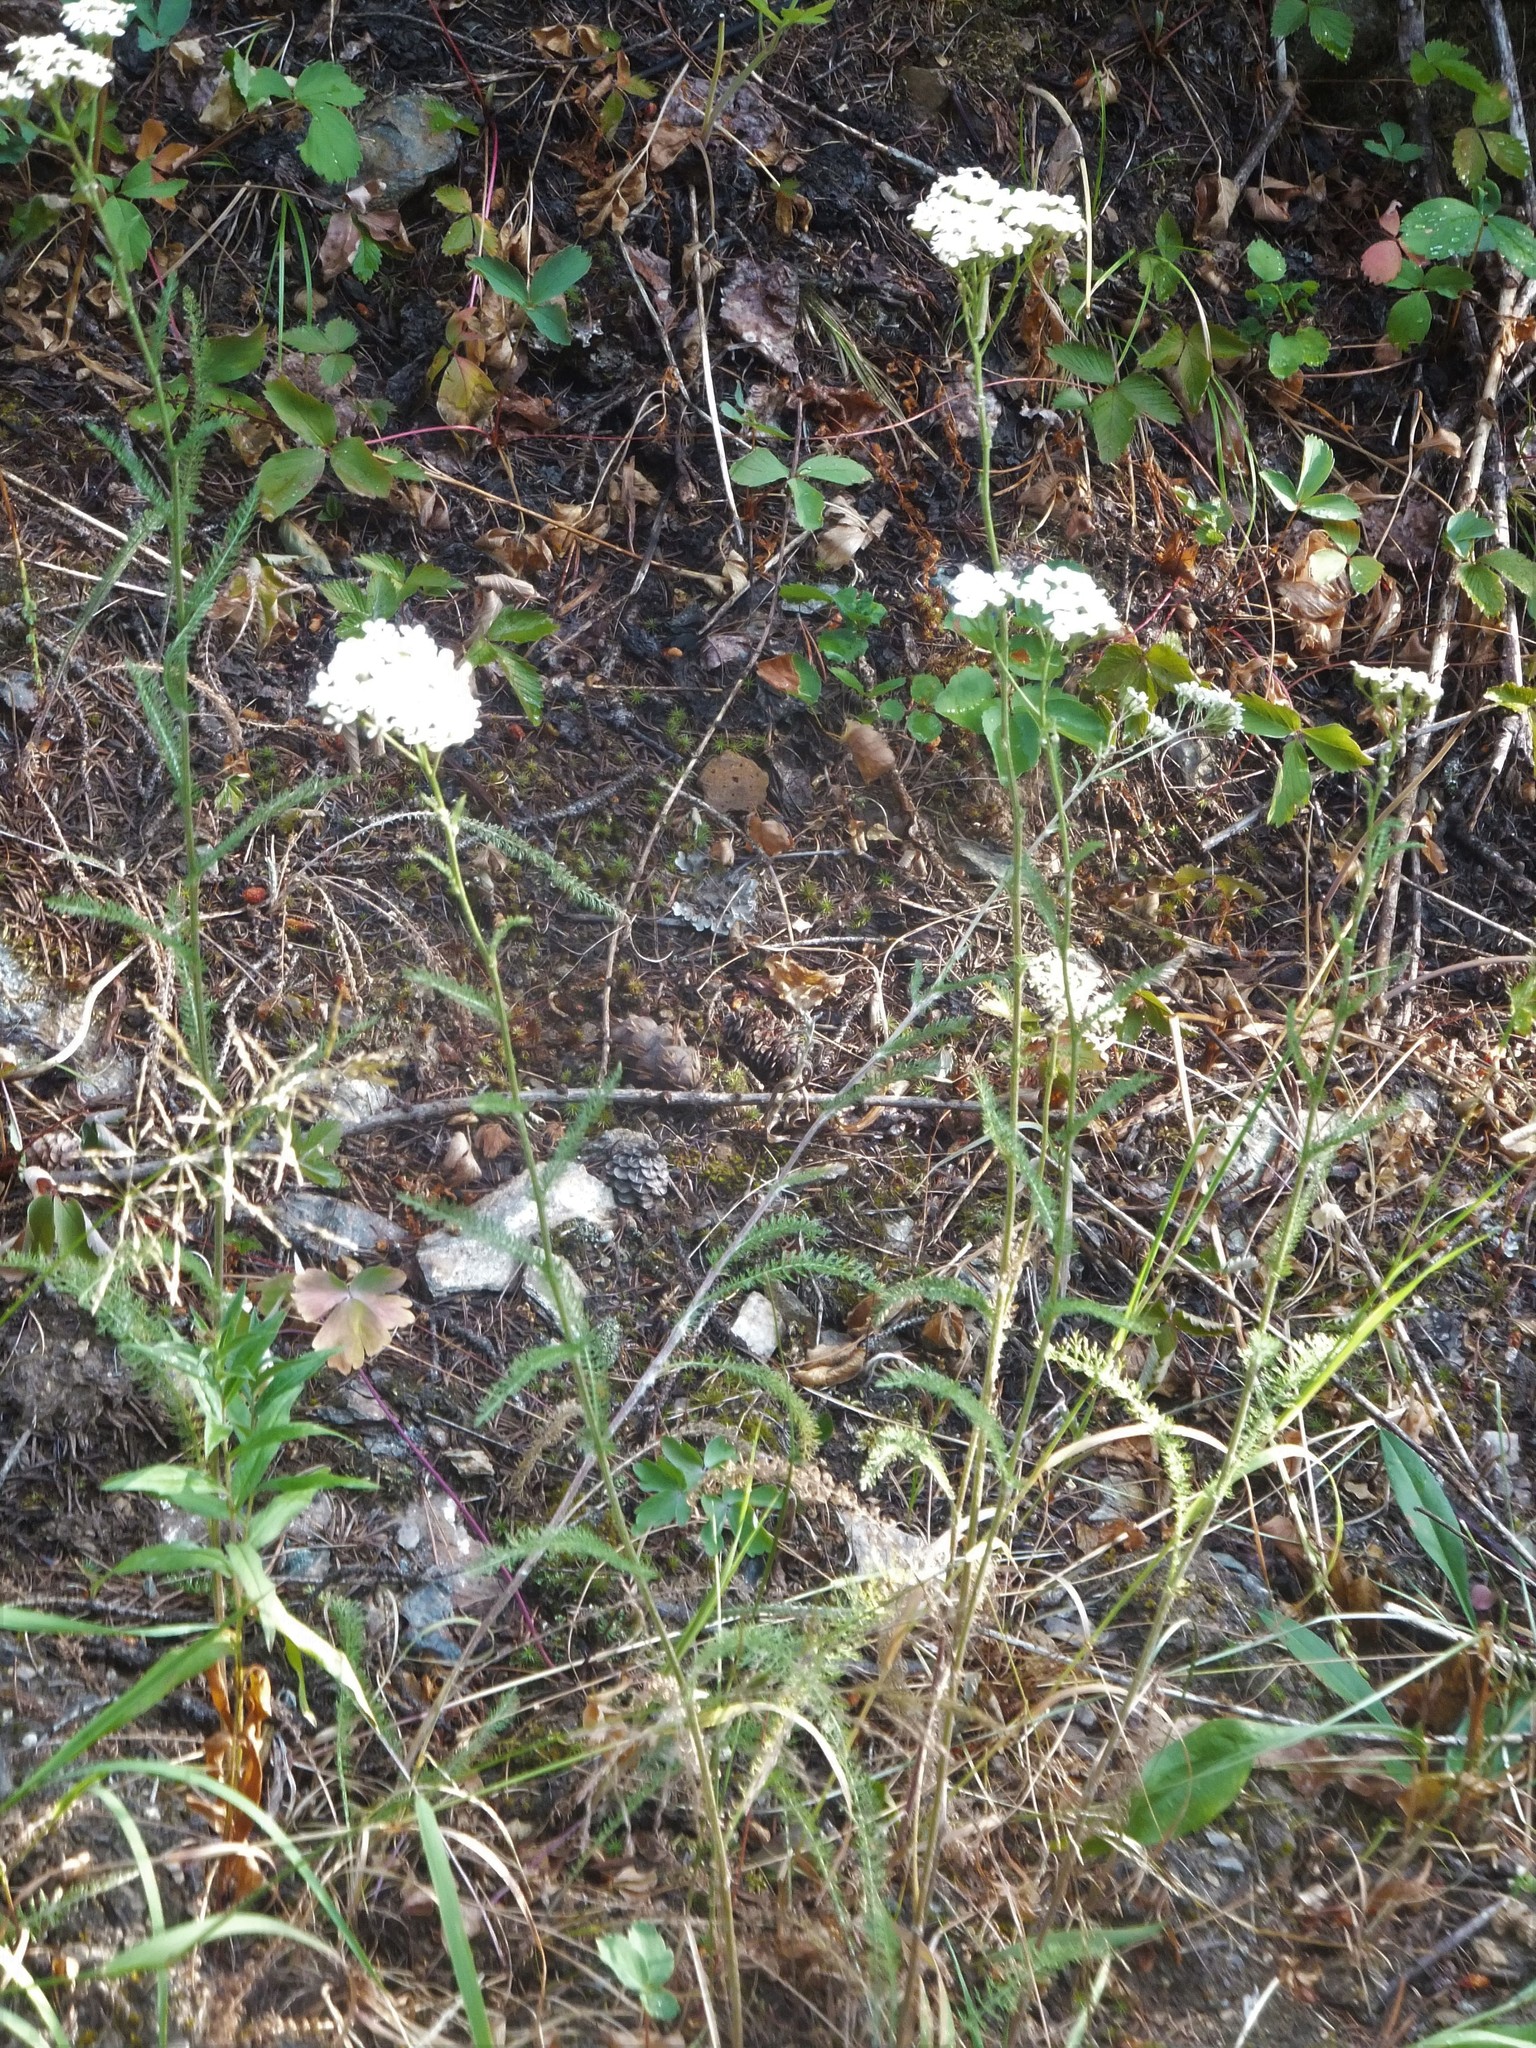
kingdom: Plantae
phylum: Tracheophyta
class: Magnoliopsida
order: Asterales
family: Asteraceae
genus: Achillea
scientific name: Achillea millefolium
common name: Yarrow
